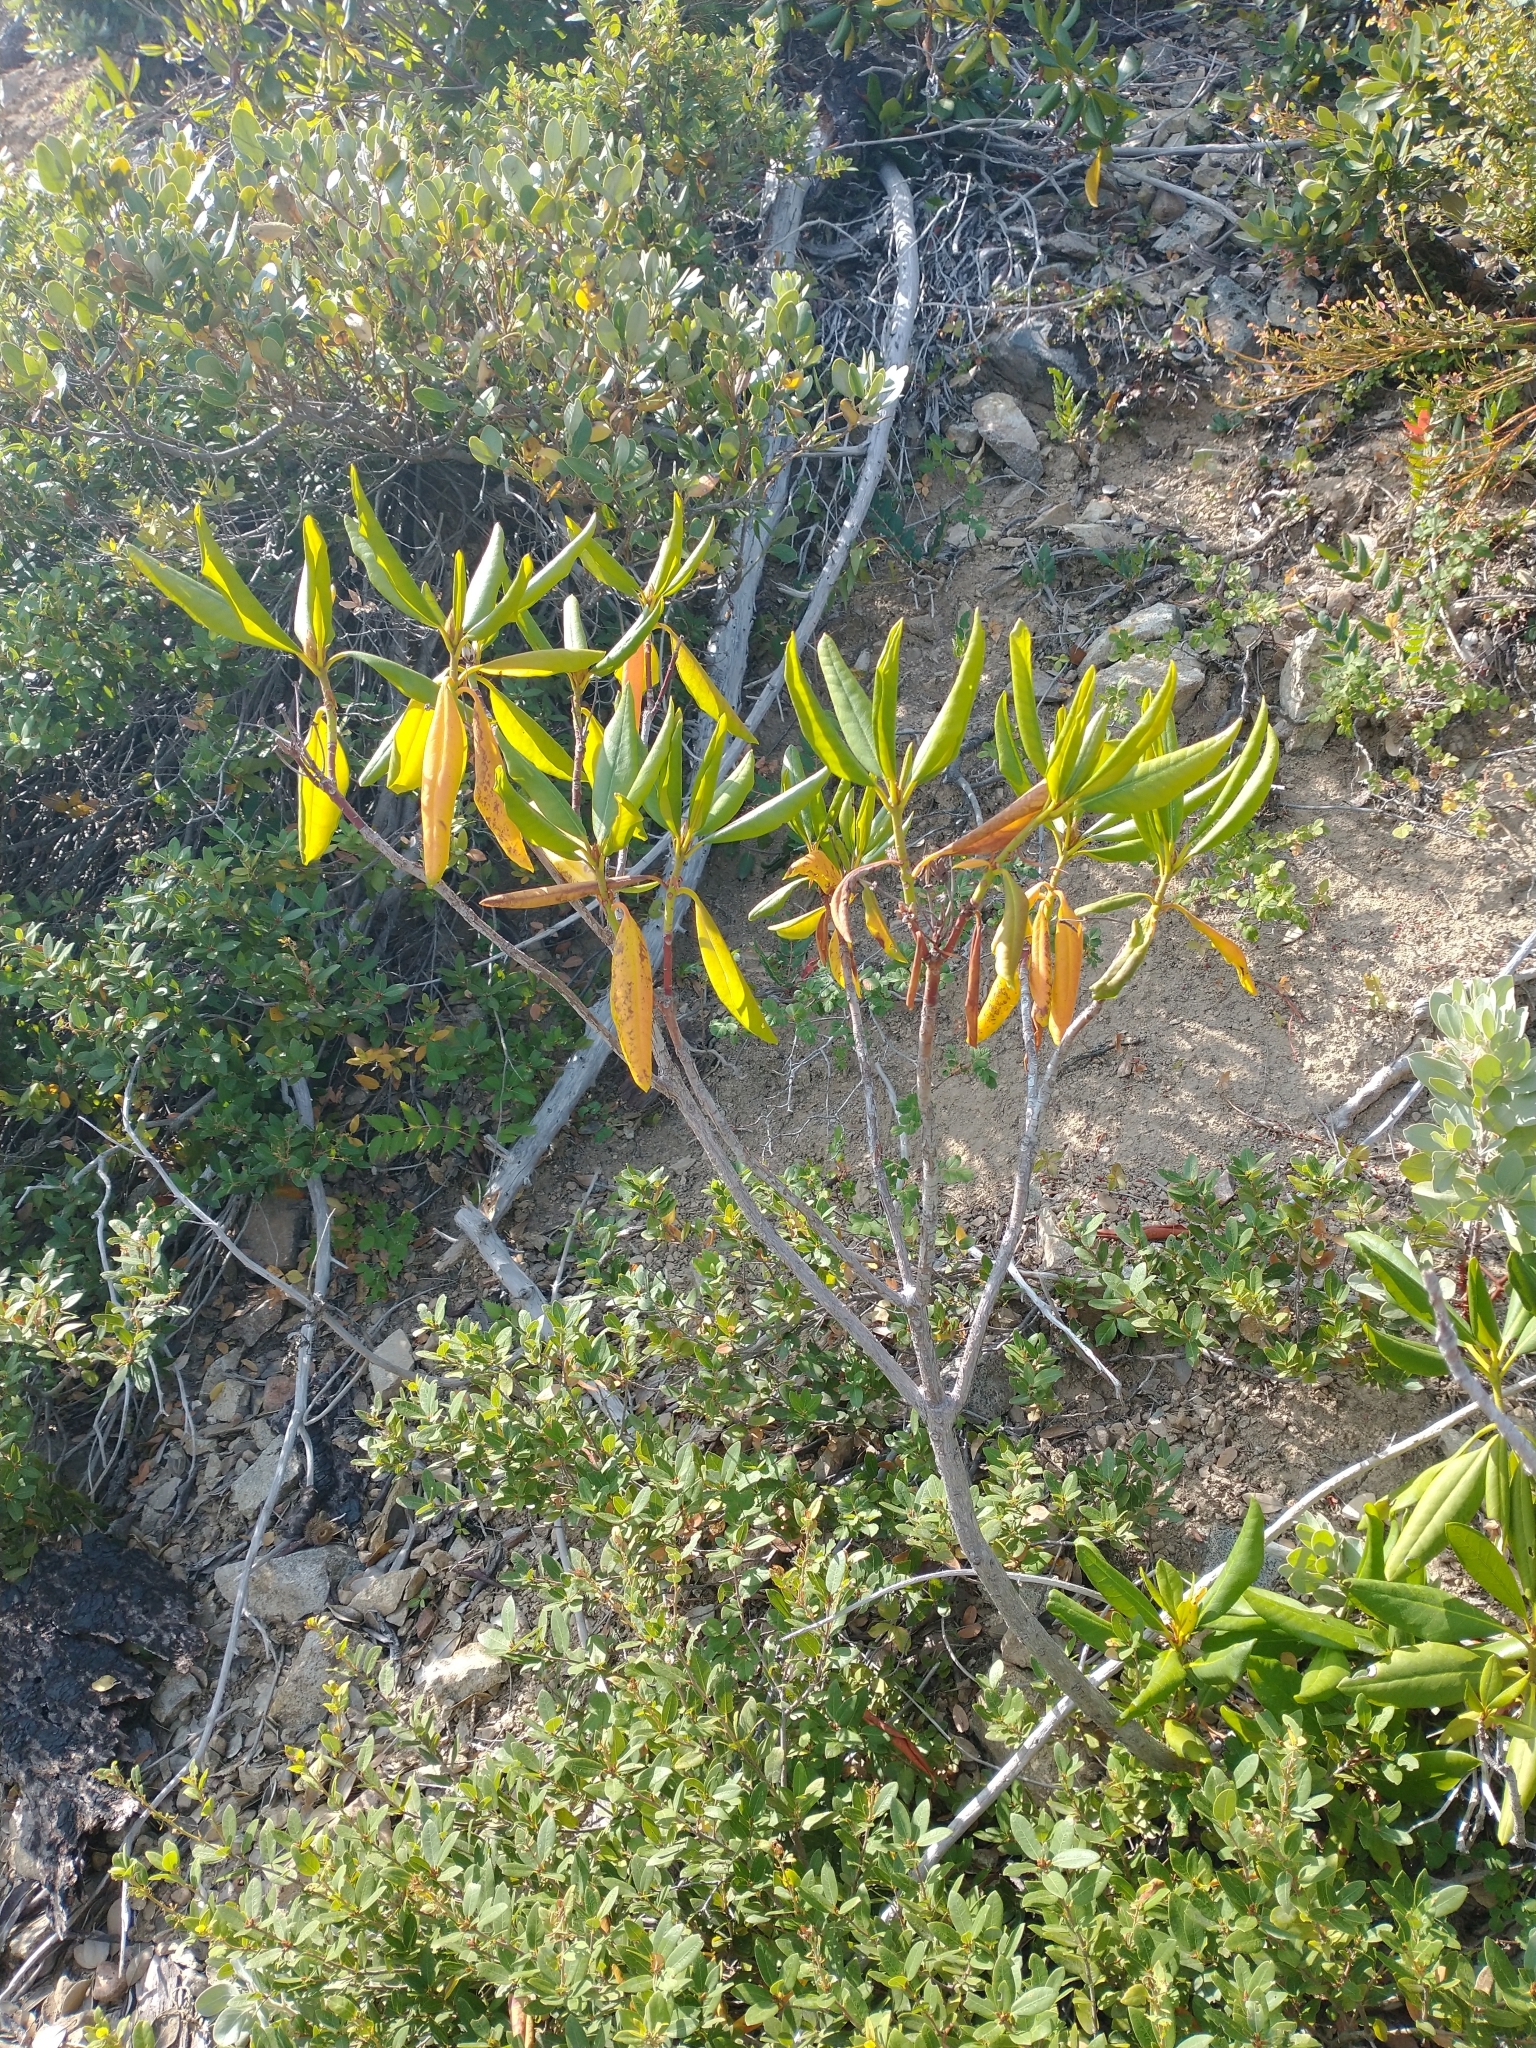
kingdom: Plantae
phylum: Tracheophyta
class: Magnoliopsida
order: Ericales
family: Ericaceae
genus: Rhododendron
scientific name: Rhododendron macrophyllum
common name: California rose bay
